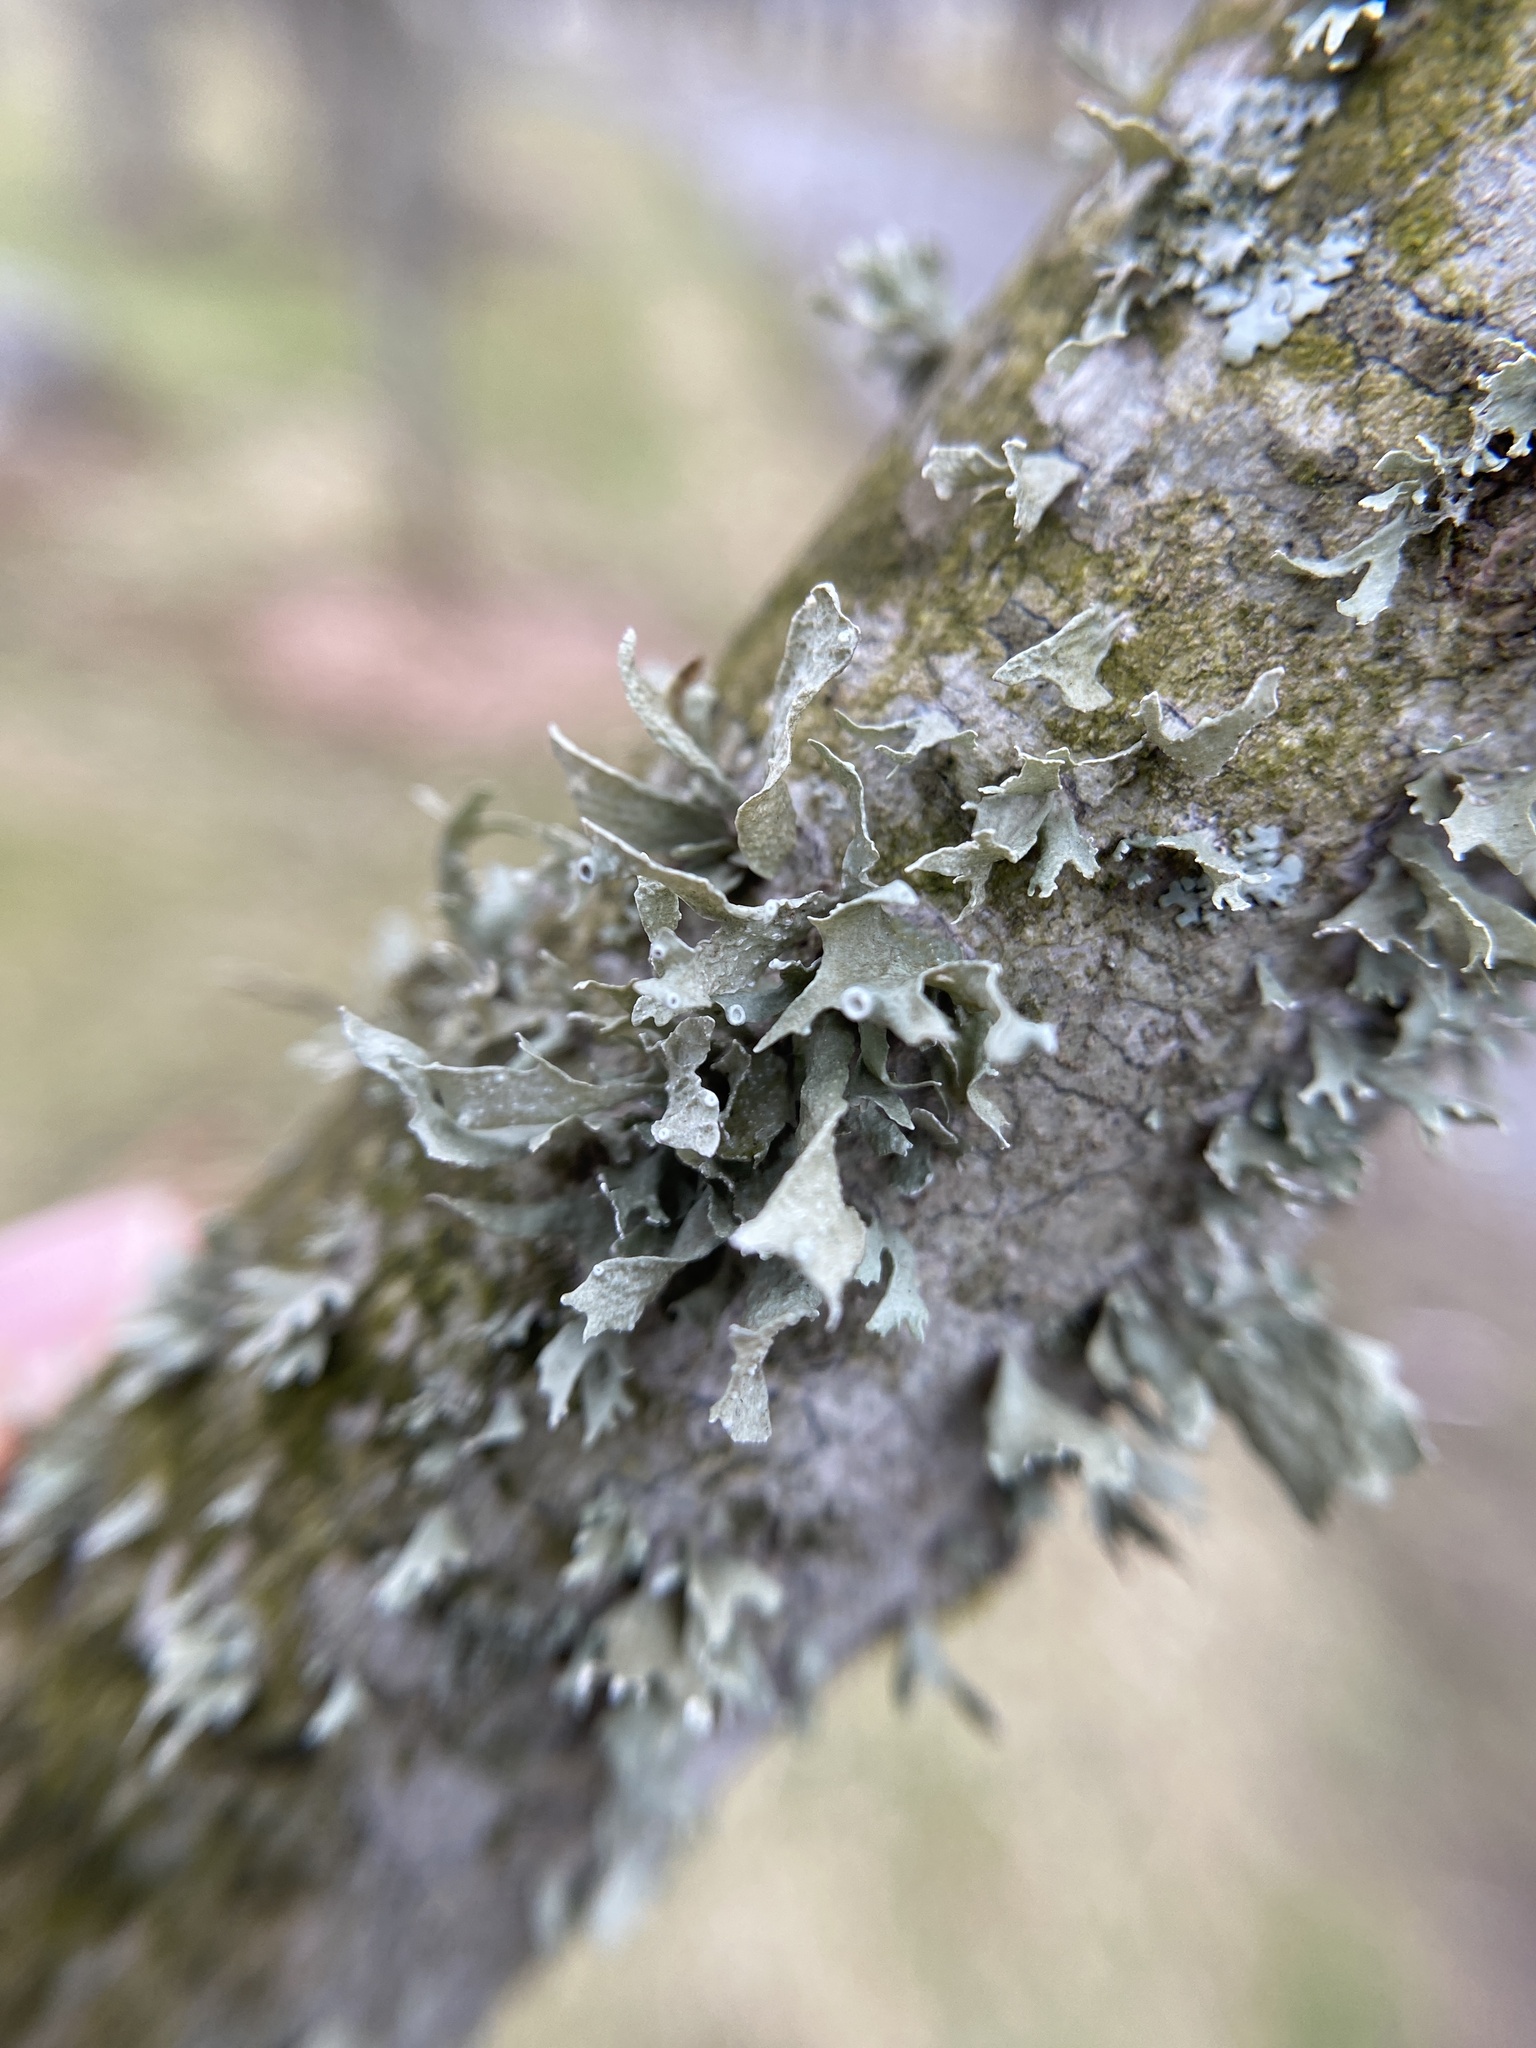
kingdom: Fungi
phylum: Ascomycota
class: Lecanoromycetes
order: Lecanorales
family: Ramalinaceae
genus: Ramalina
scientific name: Ramalina americana
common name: Sinewed bush lichen
